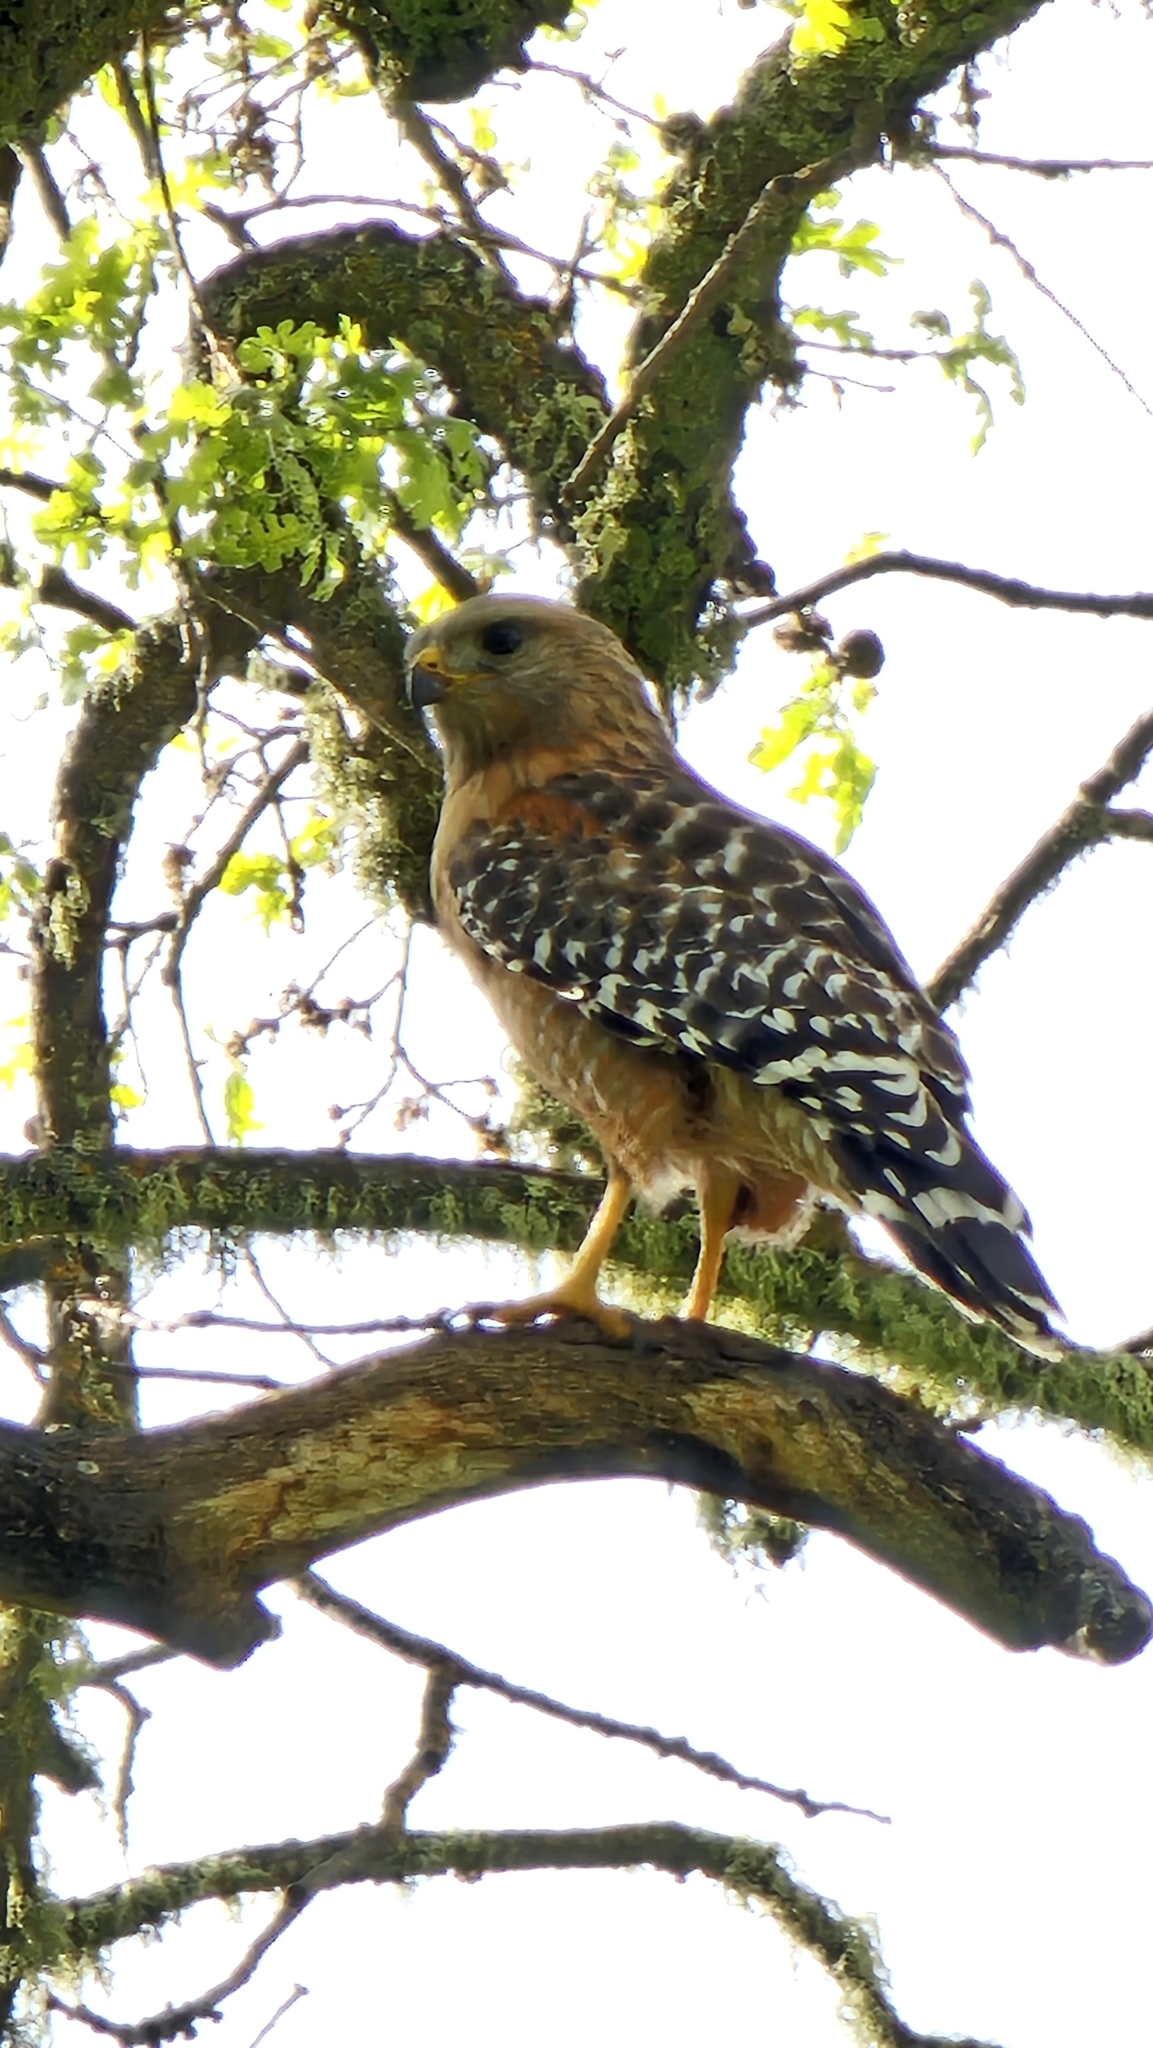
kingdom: Animalia
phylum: Chordata
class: Aves
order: Accipitriformes
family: Accipitridae
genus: Buteo
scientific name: Buteo lineatus
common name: Red-shouldered hawk
